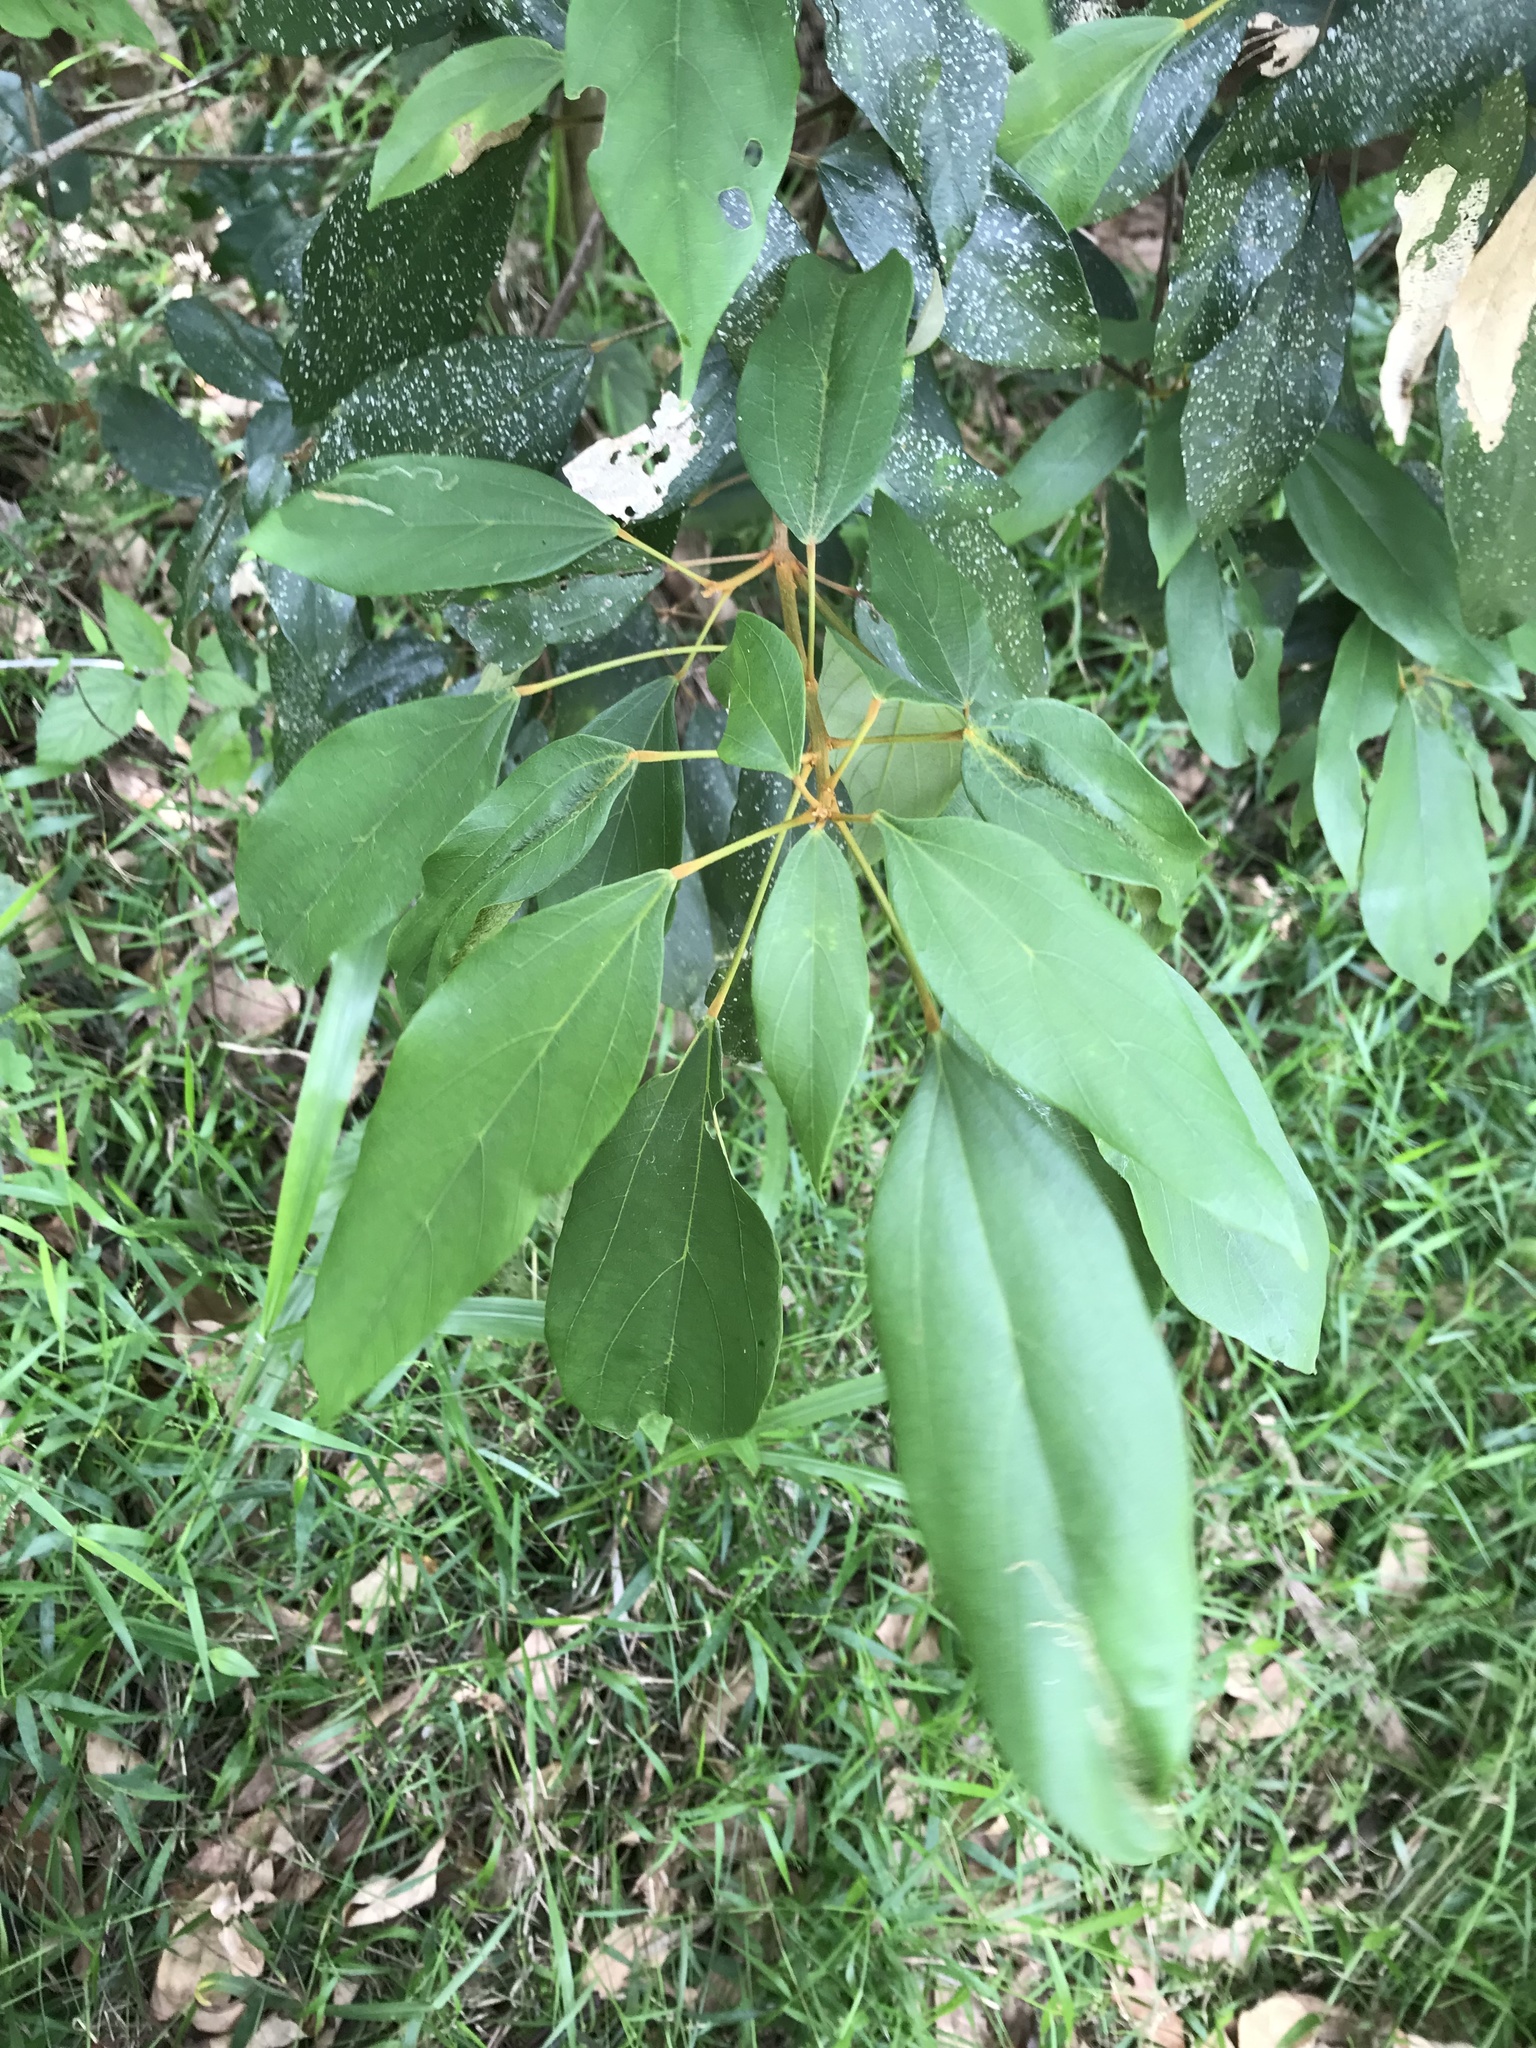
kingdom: Plantae
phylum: Tracheophyta
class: Magnoliopsida
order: Malpighiales
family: Euphorbiaceae
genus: Mallotus
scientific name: Mallotus philippensis
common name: Kamala tree
